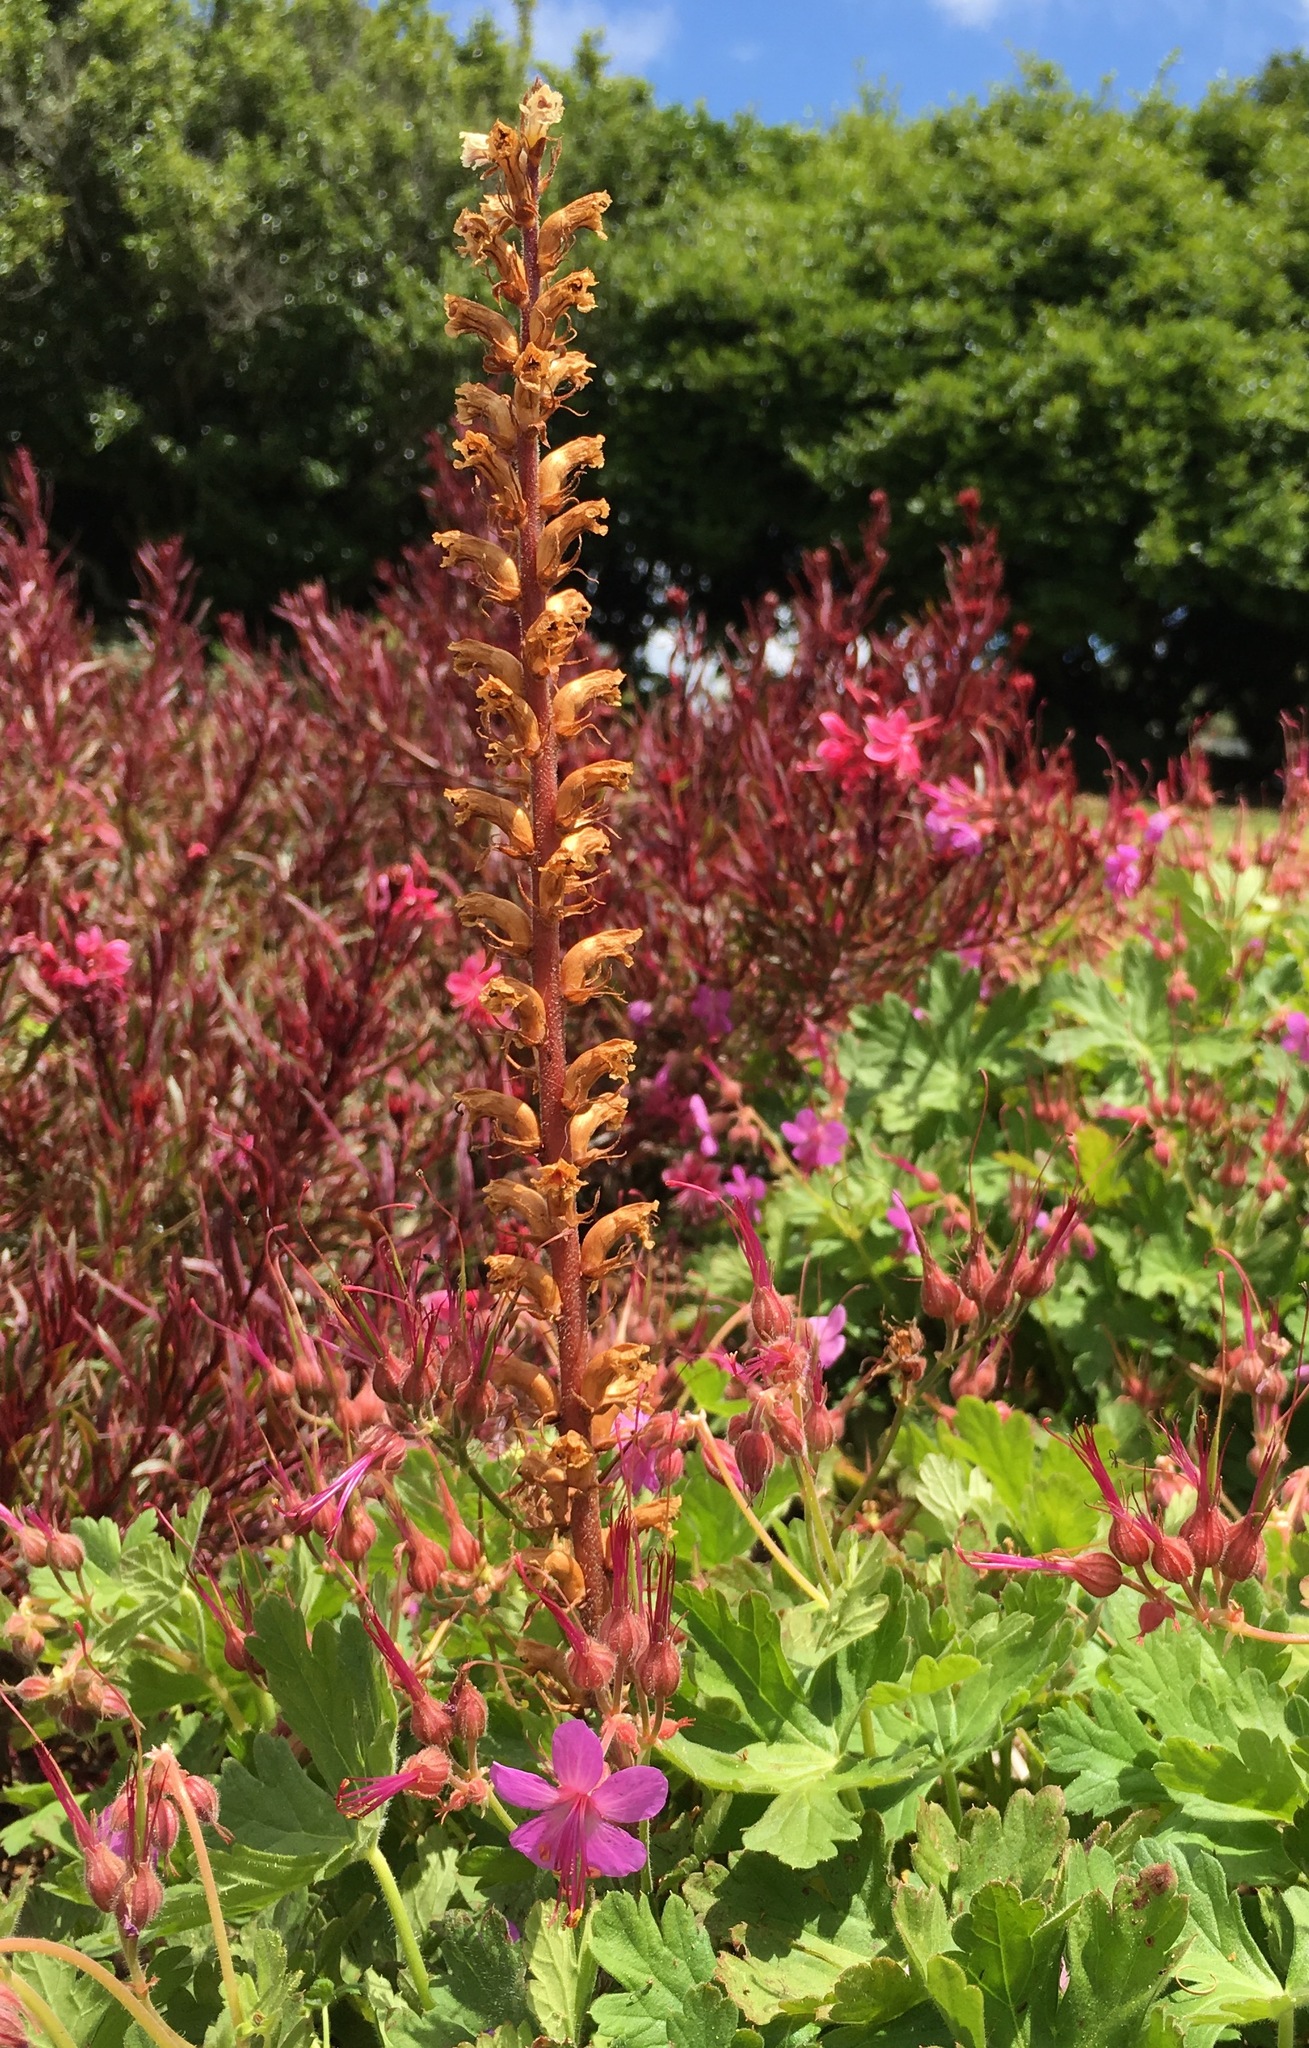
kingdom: Plantae
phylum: Tracheophyta
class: Magnoliopsida
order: Lamiales
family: Orobanchaceae
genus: Orobanche
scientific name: Orobanche minor
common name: Common broomrape
